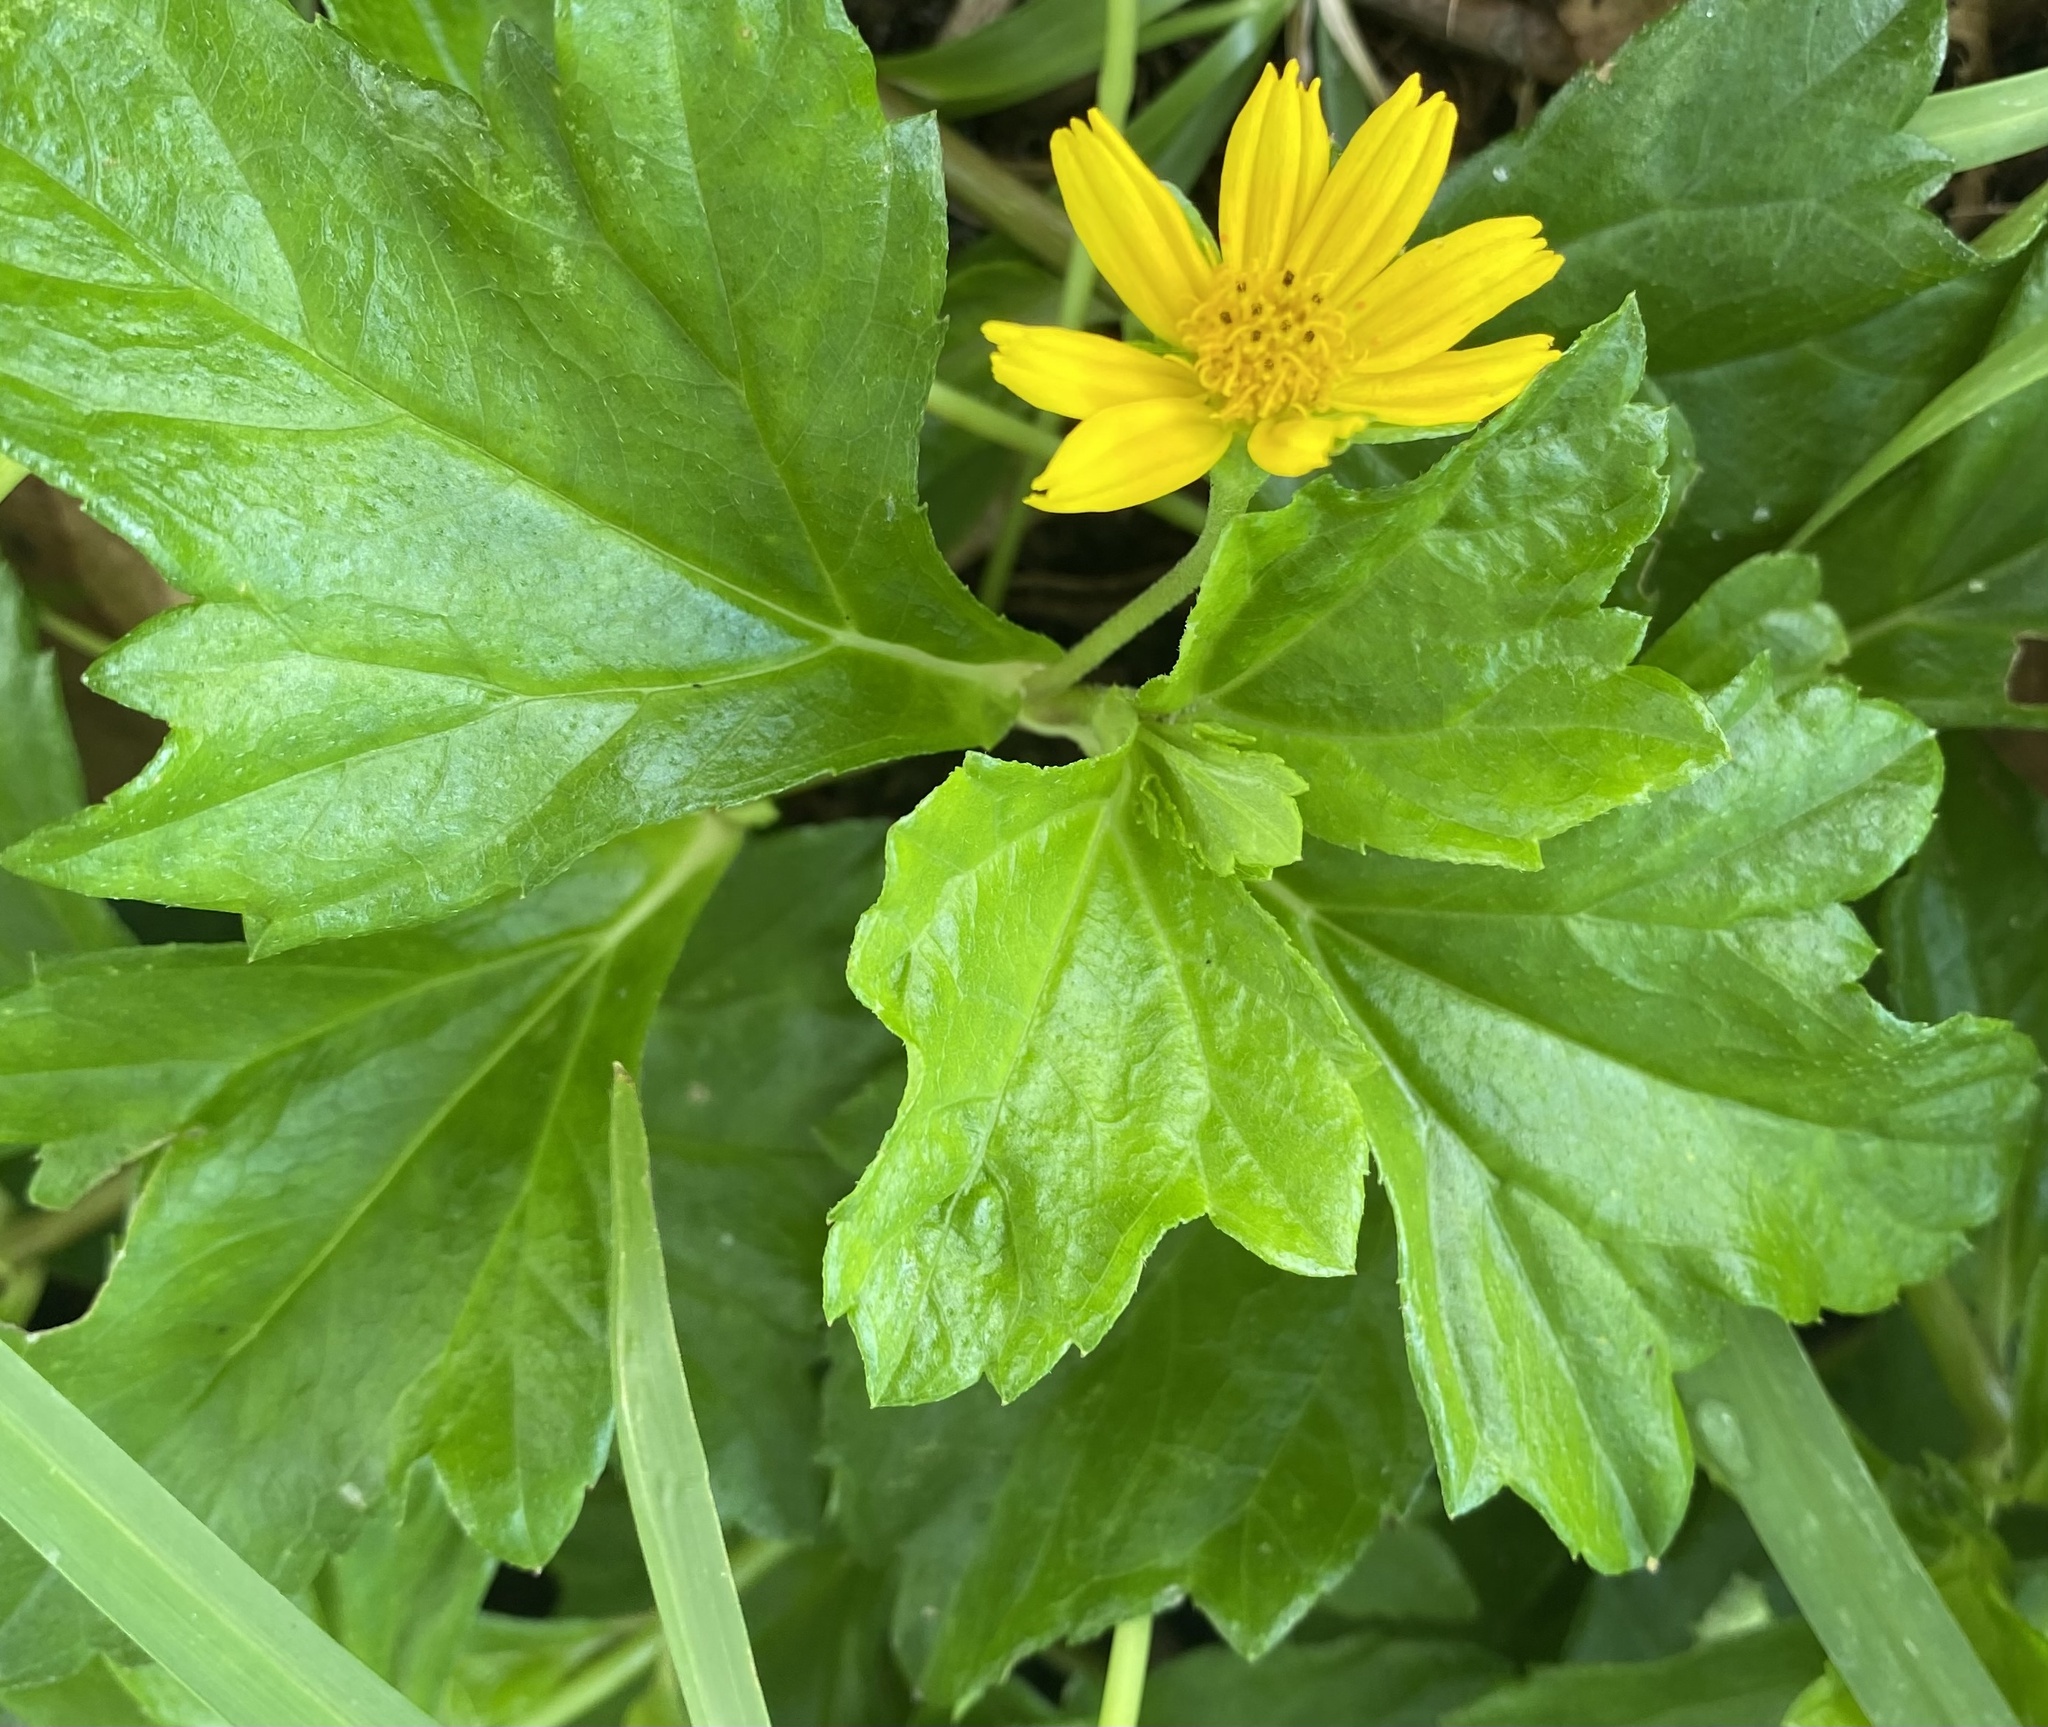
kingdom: Plantae
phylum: Tracheophyta
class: Magnoliopsida
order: Asterales
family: Asteraceae
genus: Sphagneticola
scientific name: Sphagneticola trilobata
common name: Bay biscayne creeping-oxeye
